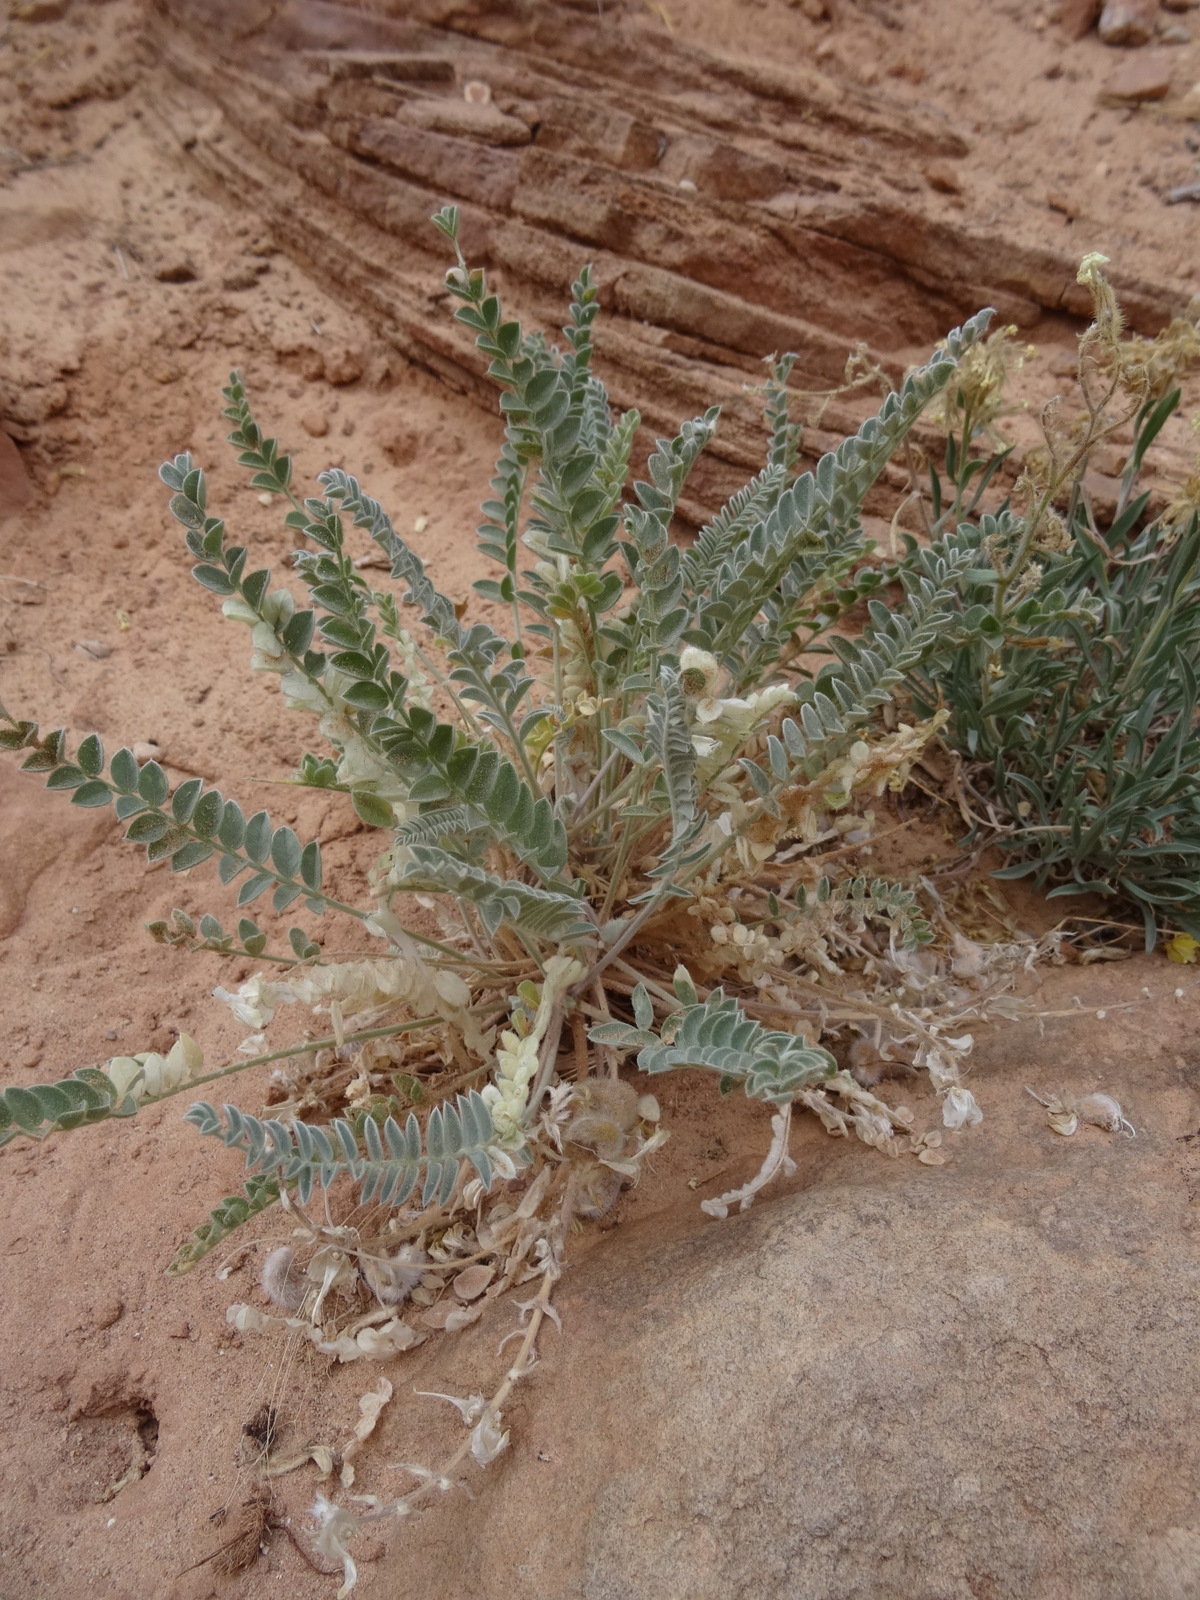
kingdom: Plantae
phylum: Tracheophyta
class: Magnoliopsida
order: Fabales
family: Fabaceae
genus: Astragalus
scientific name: Astragalus mollissimus
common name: Woolly locoweed
